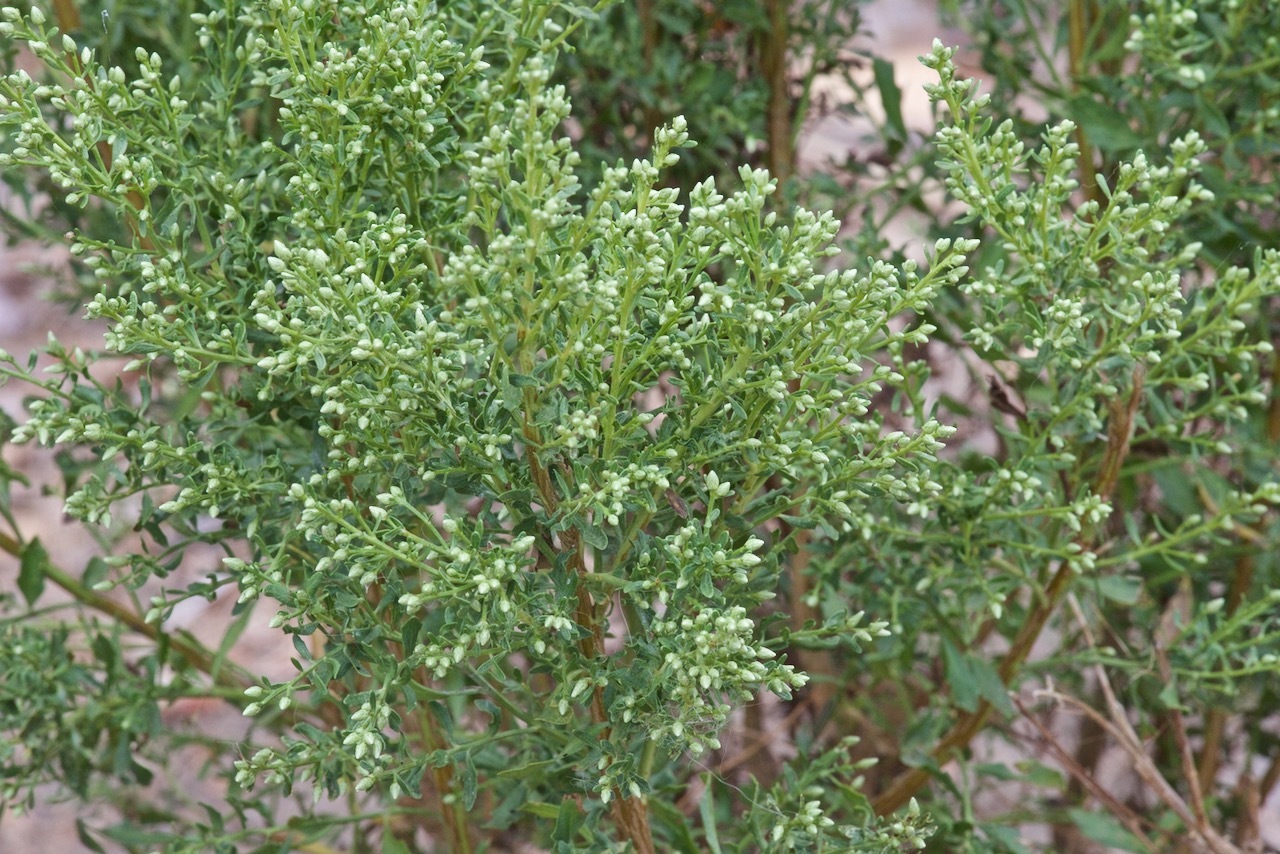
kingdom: Plantae
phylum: Tracheophyta
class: Magnoliopsida
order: Asterales
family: Asteraceae
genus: Baccharis
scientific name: Baccharis pilularis
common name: Coyotebrush
